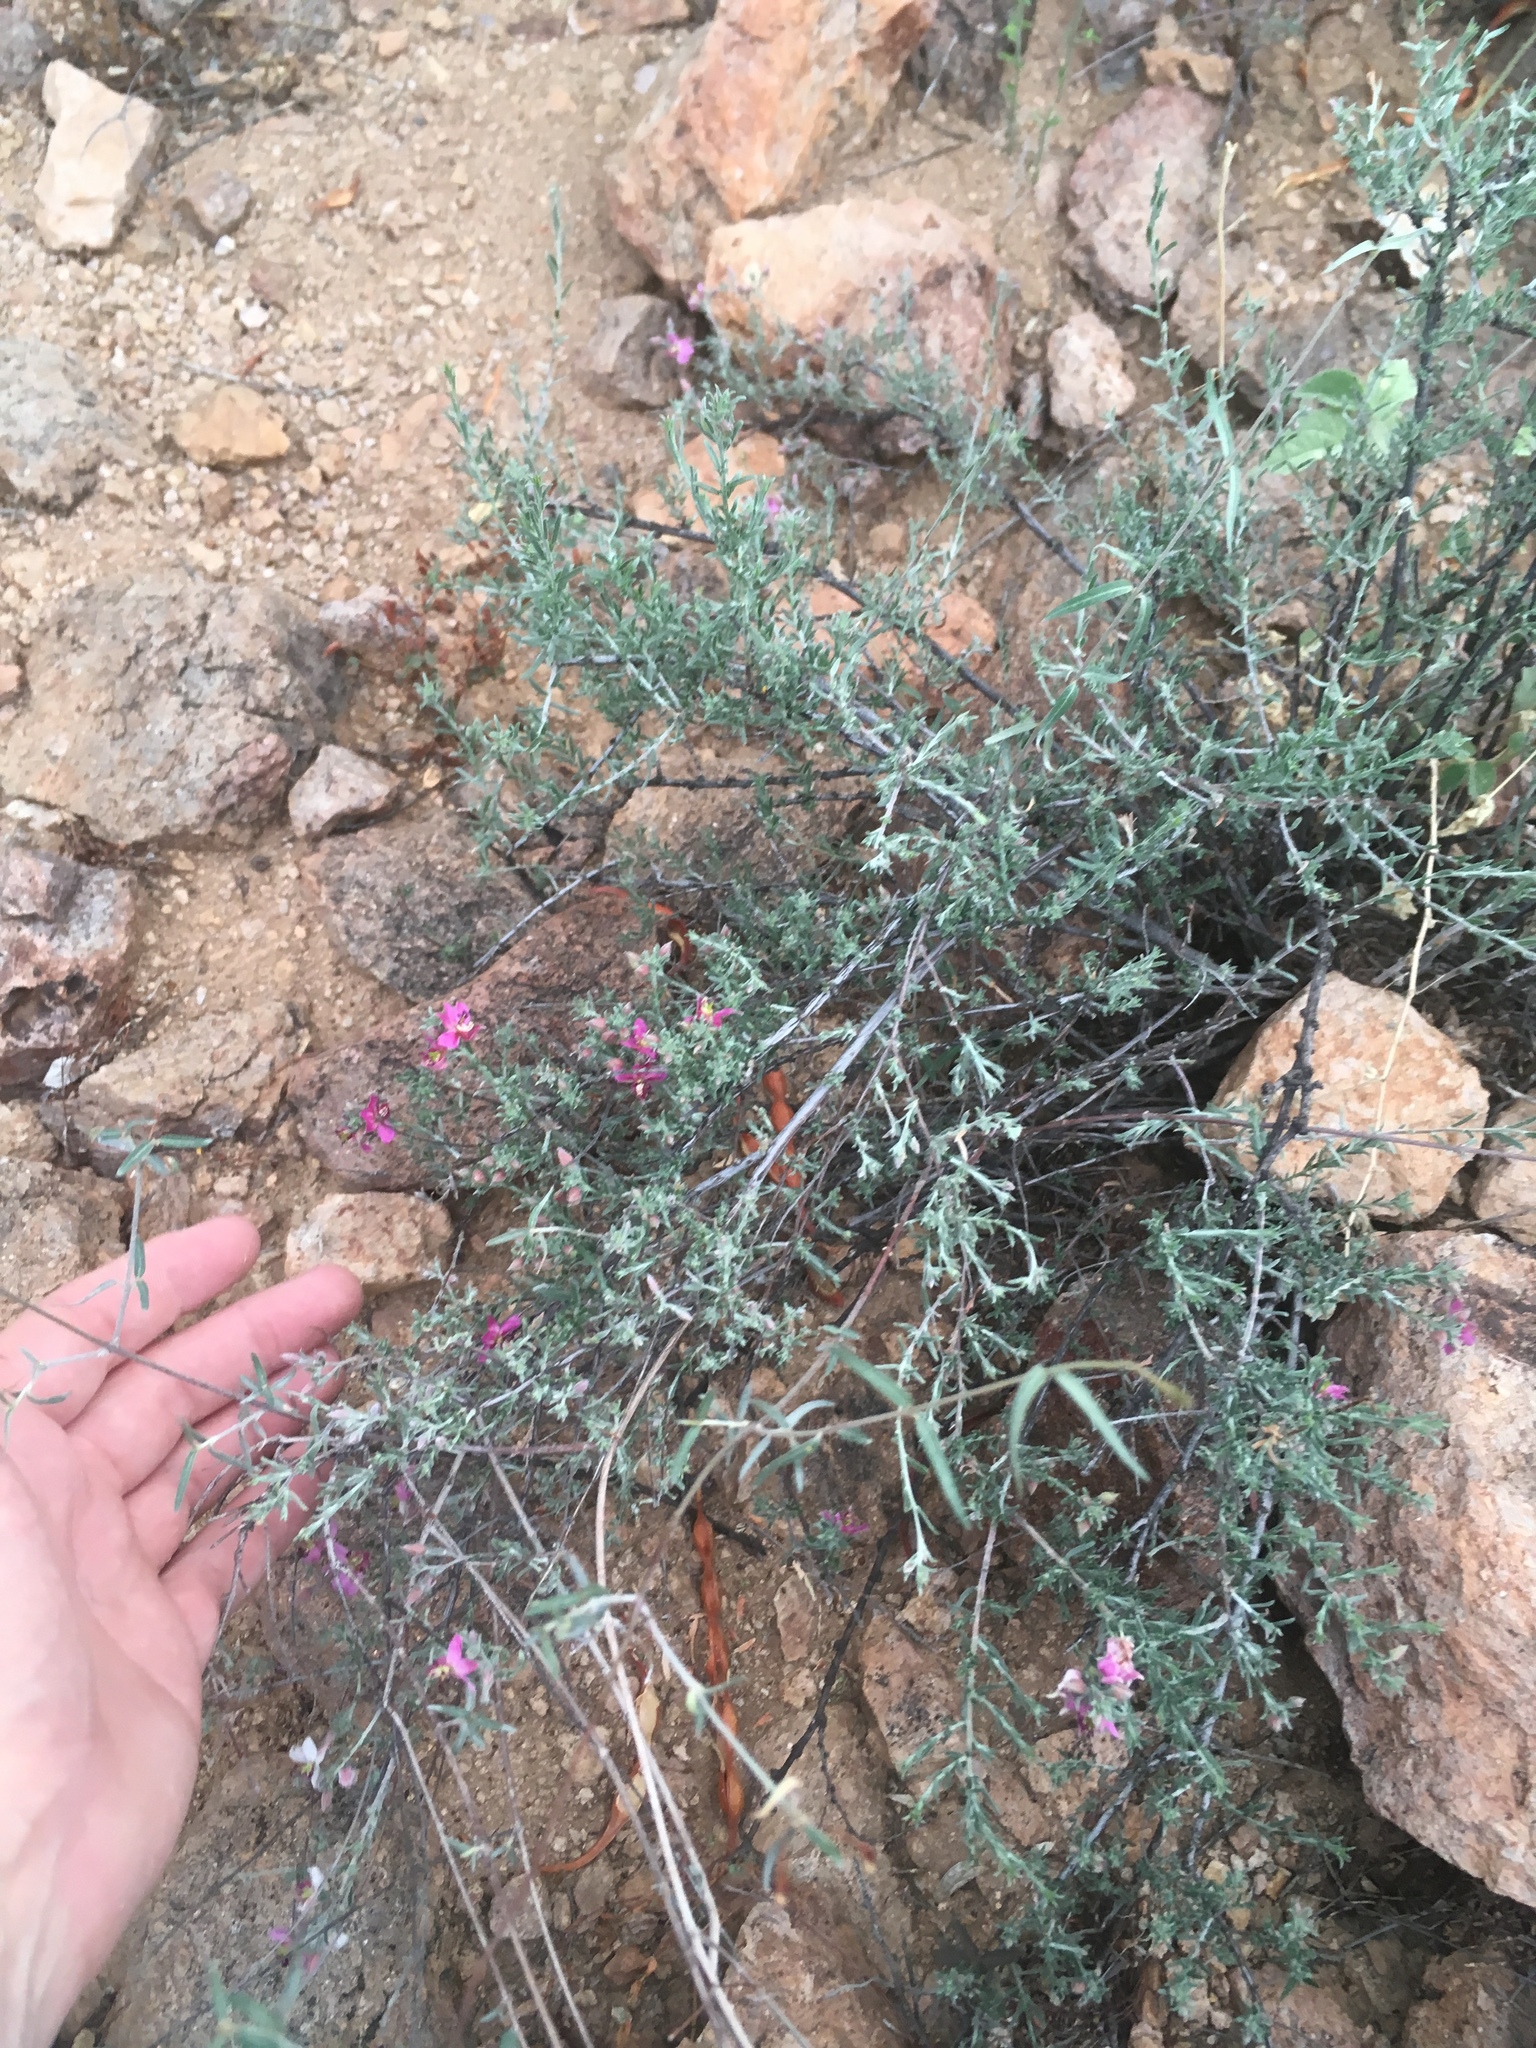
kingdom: Plantae
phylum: Tracheophyta
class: Magnoliopsida
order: Zygophyllales
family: Krameriaceae
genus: Krameria
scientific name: Krameria erecta
